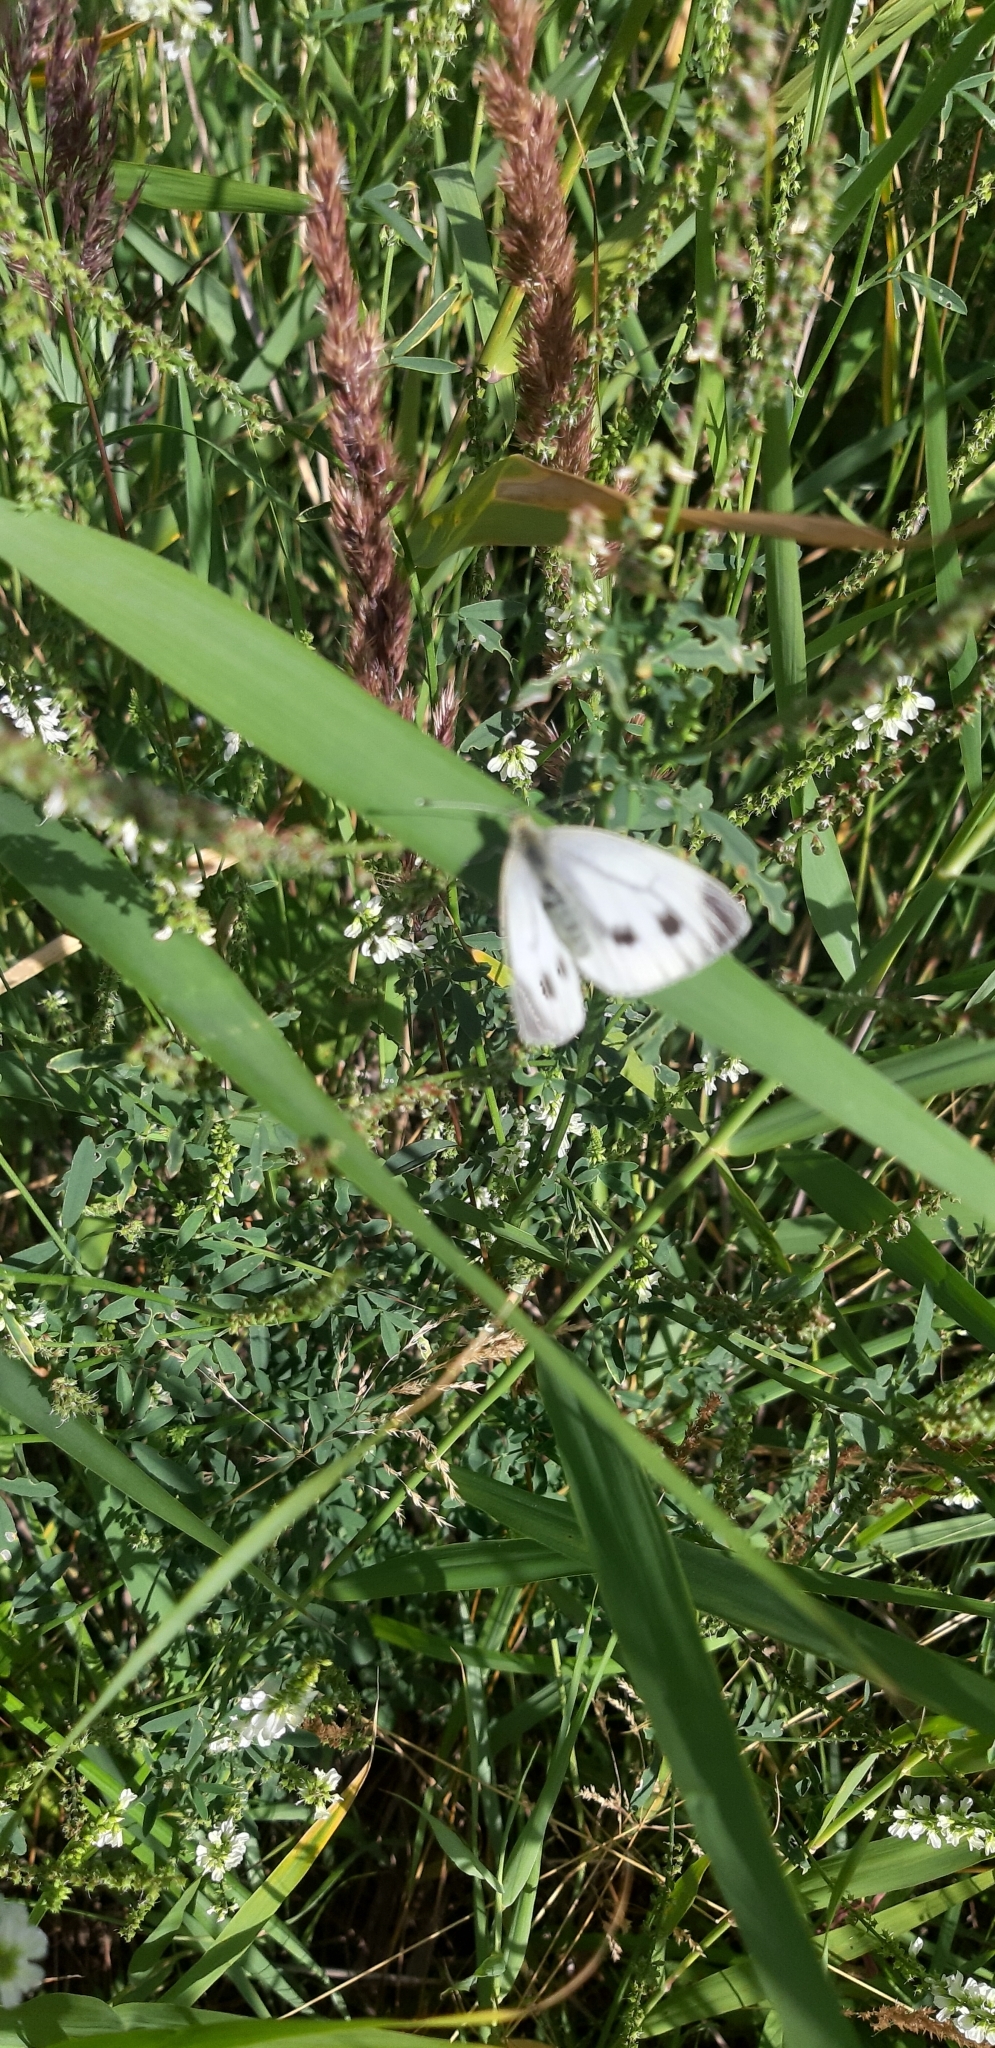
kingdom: Animalia
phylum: Arthropoda
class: Insecta
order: Lepidoptera
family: Pieridae
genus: Pieris
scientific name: Pieris napi
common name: Green-veined white
